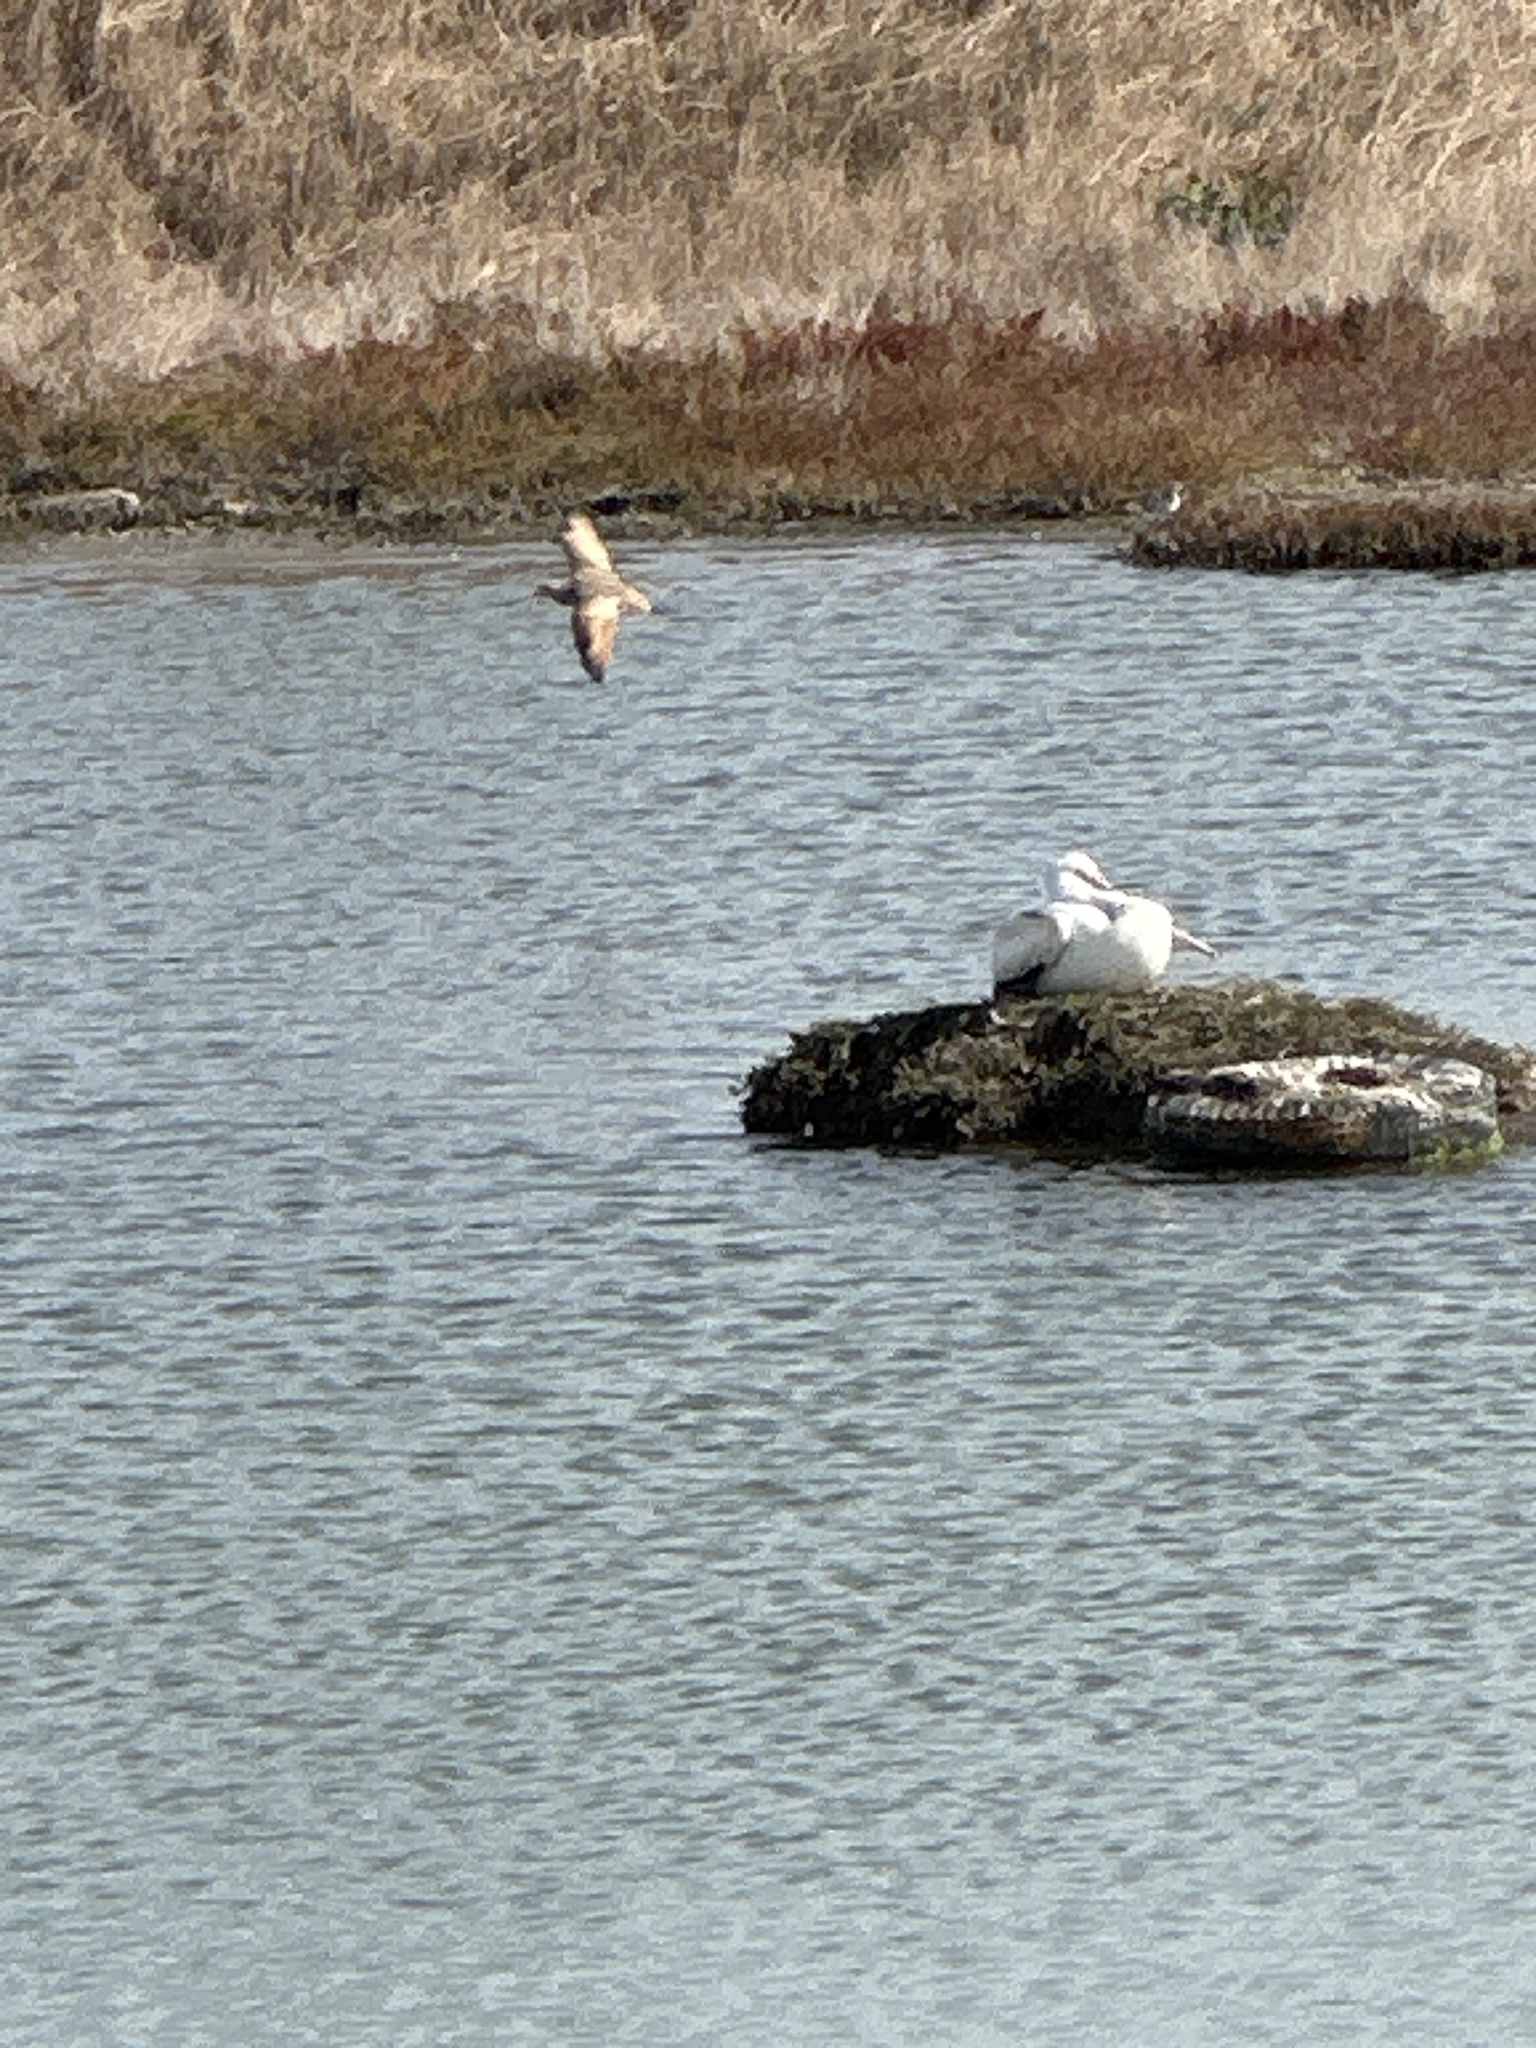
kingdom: Animalia
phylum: Chordata
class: Aves
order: Pelecaniformes
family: Pelecanidae
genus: Pelecanus
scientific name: Pelecanus erythrorhynchos
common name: American white pelican
